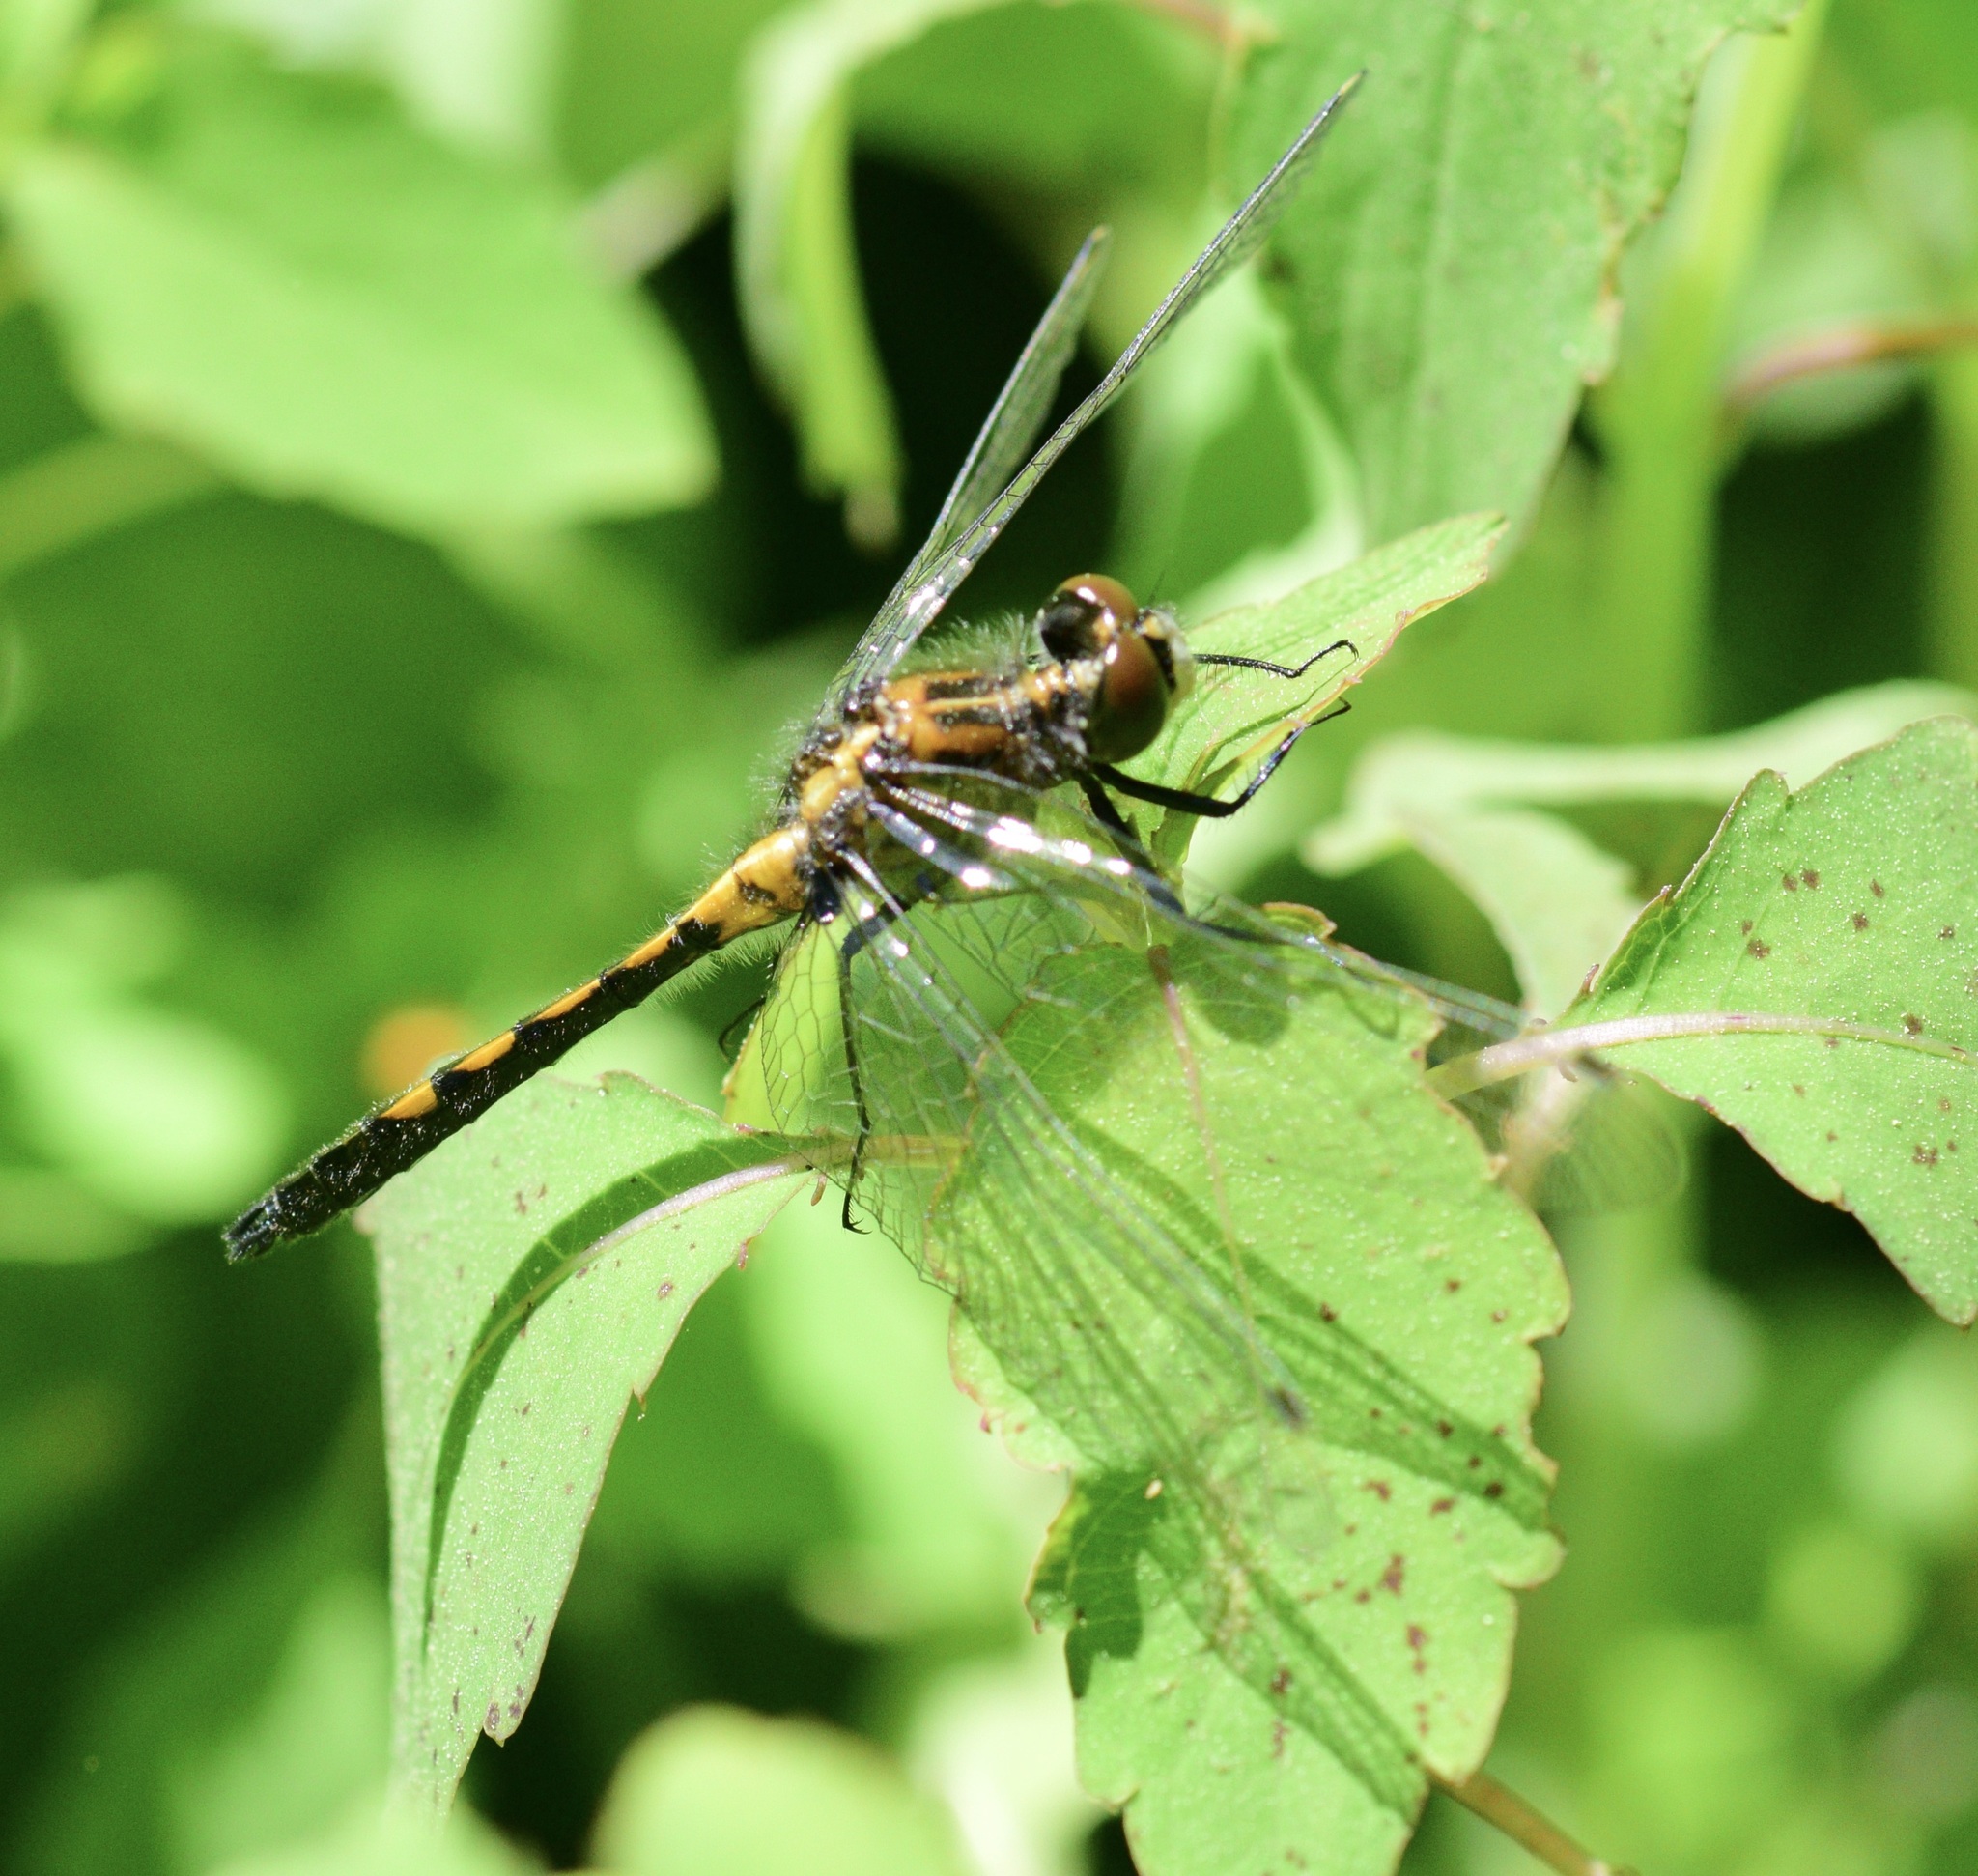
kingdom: Animalia
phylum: Arthropoda
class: Insecta
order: Odonata
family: Libellulidae
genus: Leucorrhinia
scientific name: Leucorrhinia intacta
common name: Dot-tailed whiteface
